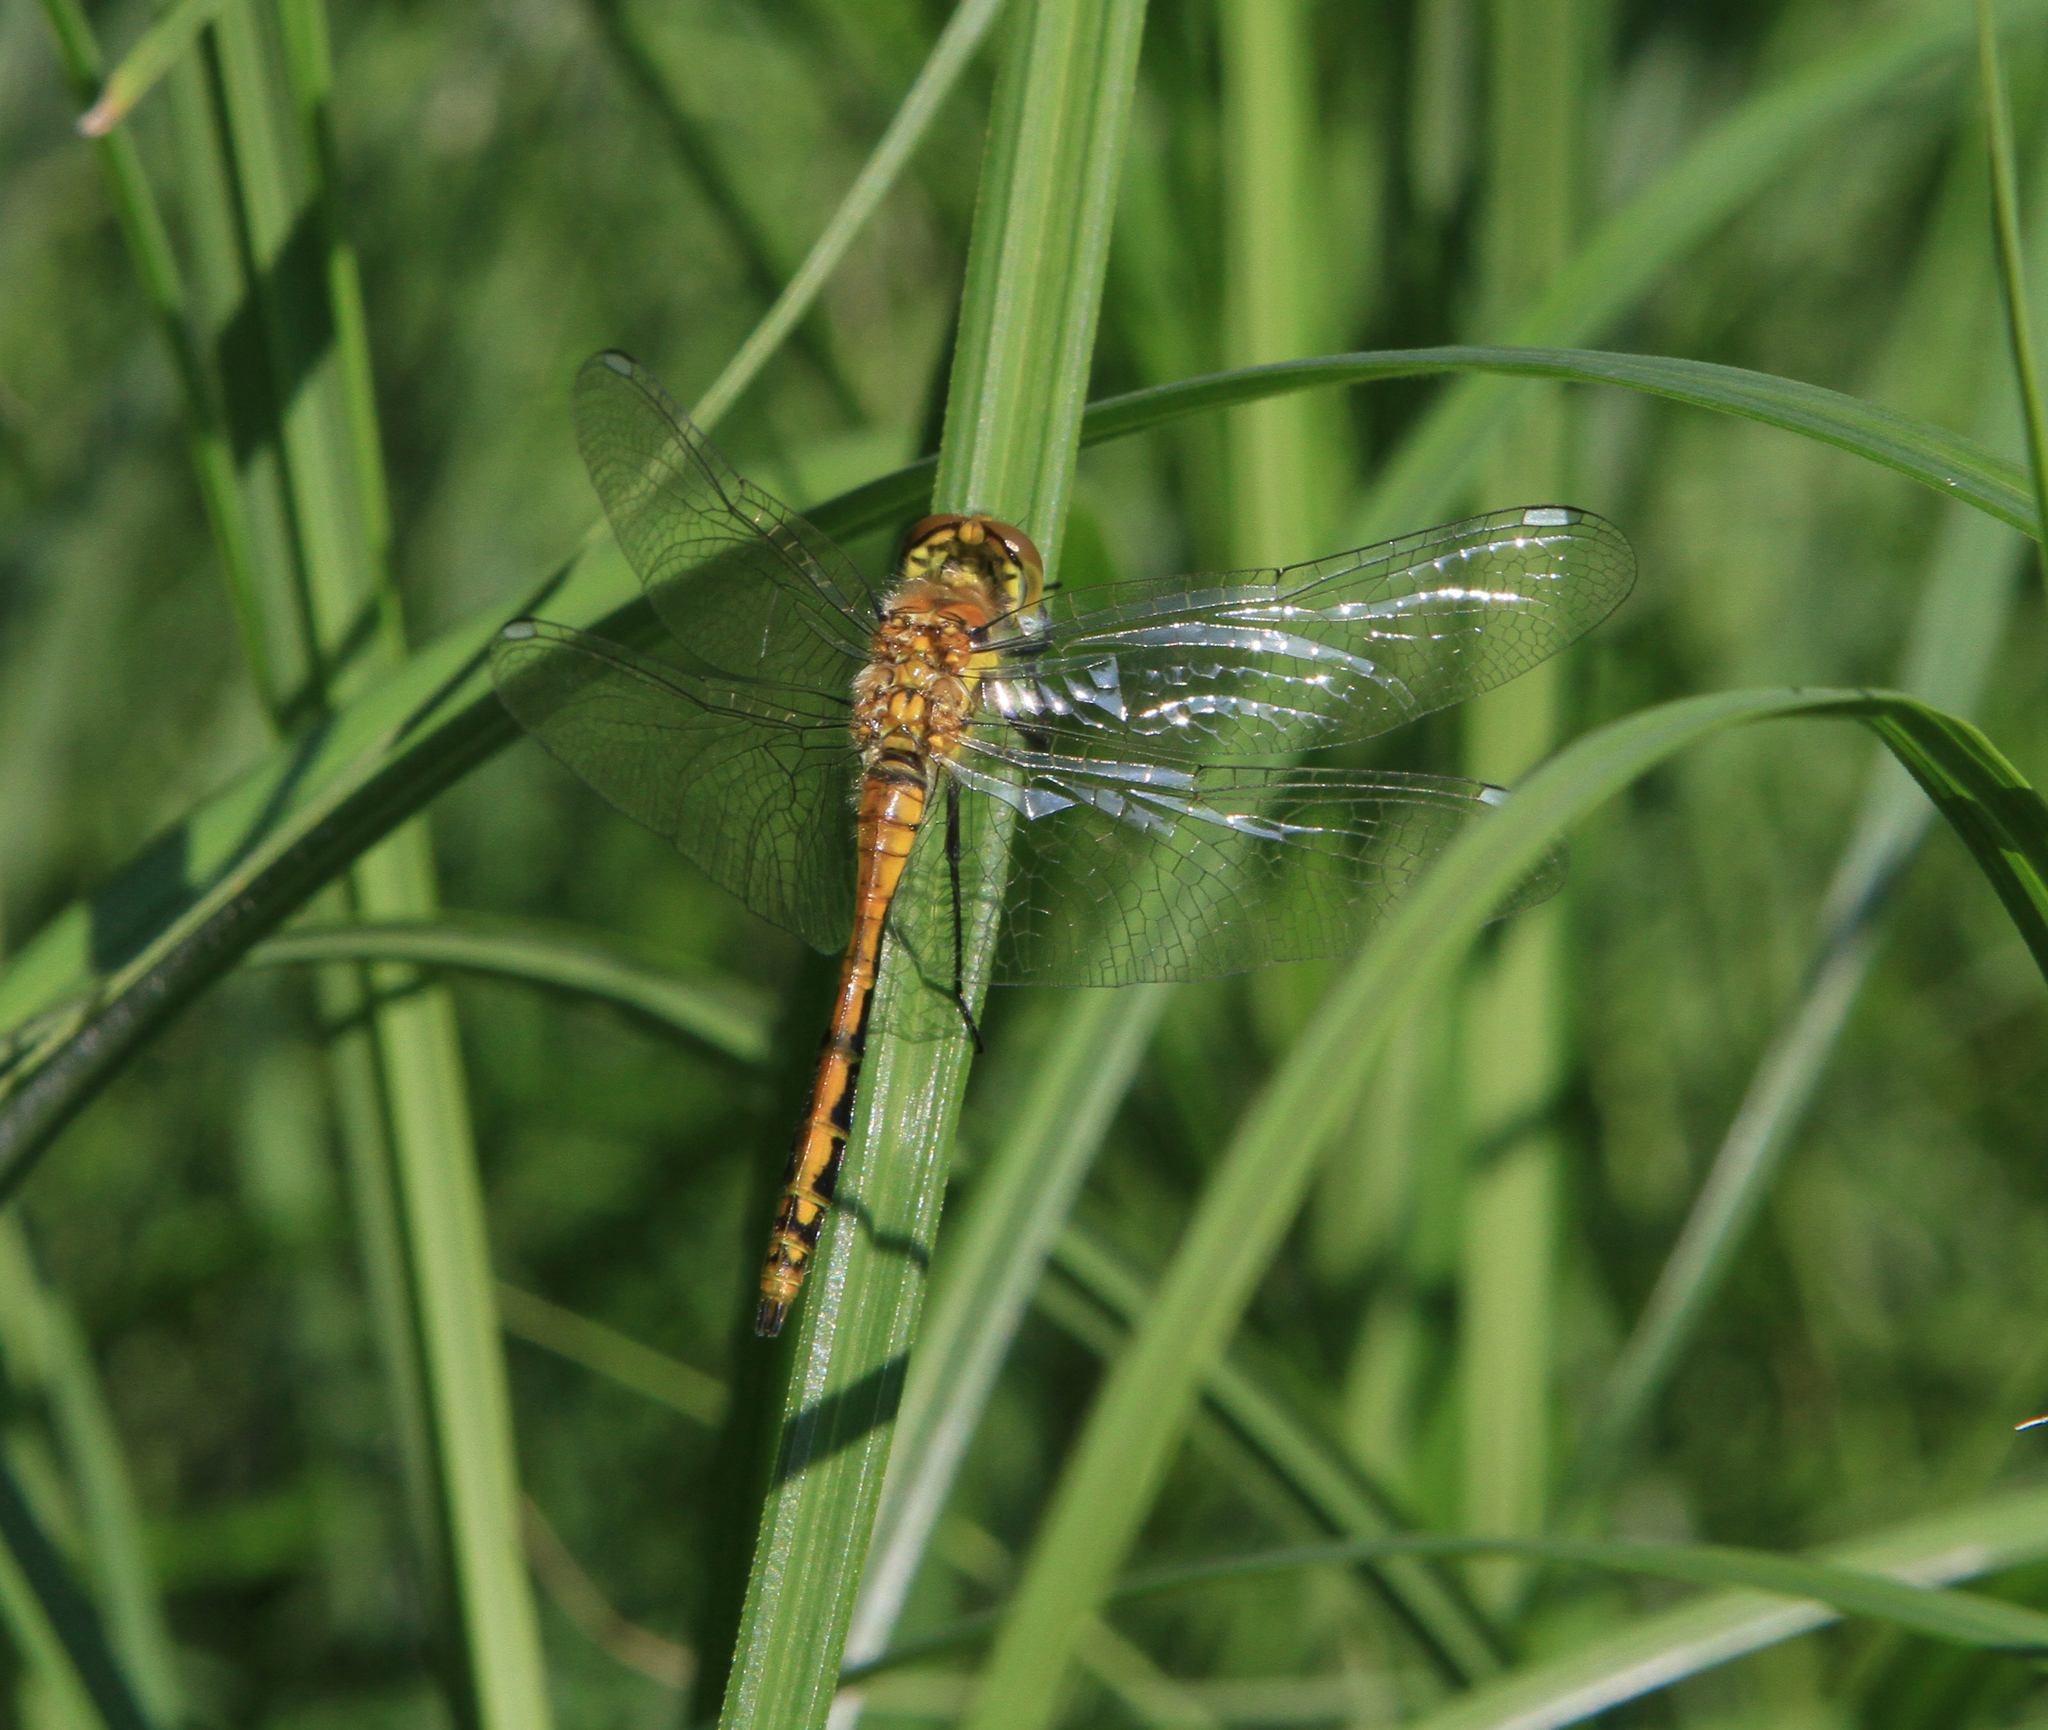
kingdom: Animalia
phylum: Arthropoda
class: Insecta
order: Odonata
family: Libellulidae
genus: Sympetrum
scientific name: Sympetrum danae
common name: Black darter
